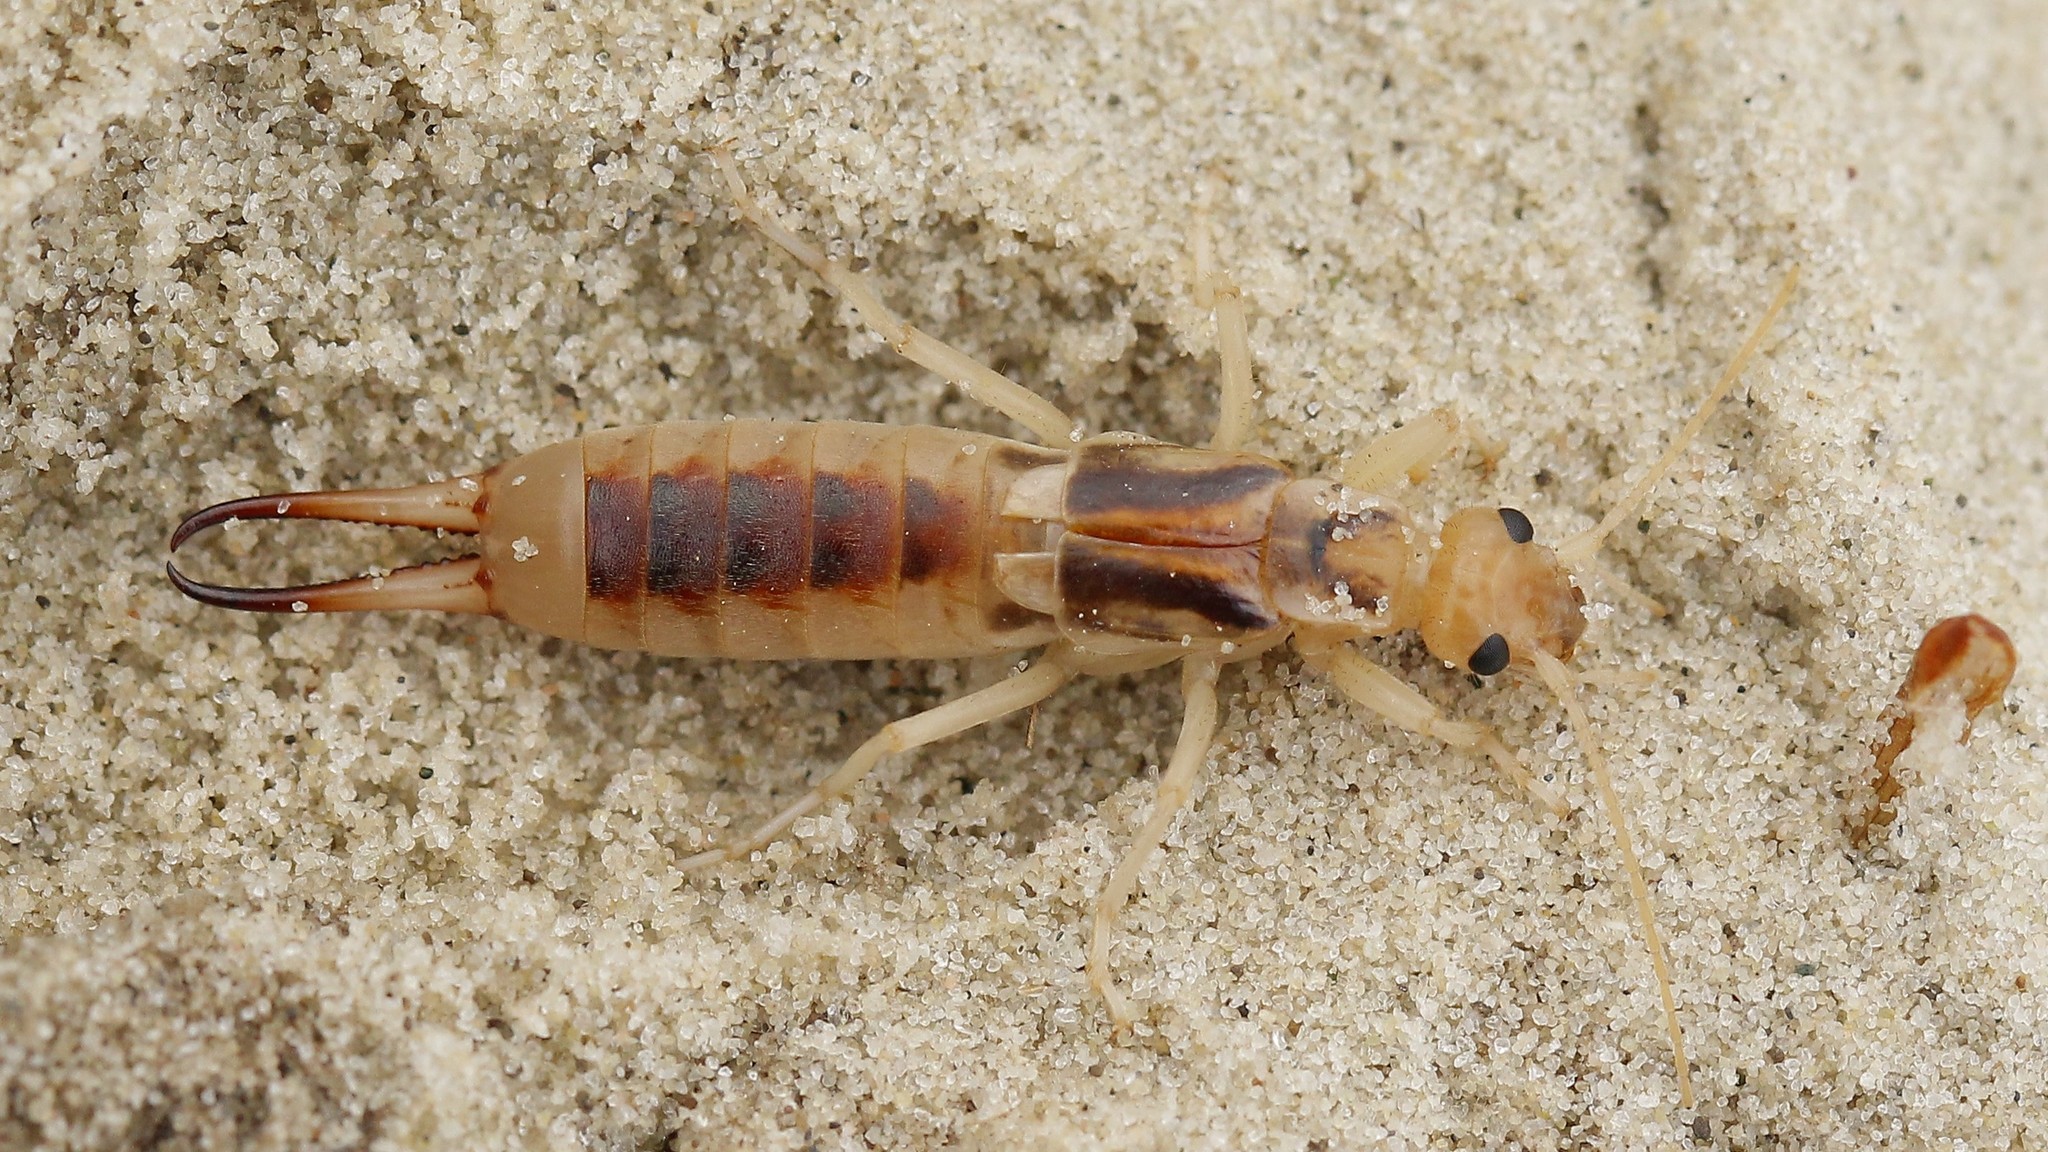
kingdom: Animalia
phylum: Arthropoda
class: Insecta
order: Dermaptera
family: Labiduridae
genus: Labidura
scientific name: Labidura riparia
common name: Striped earwig
